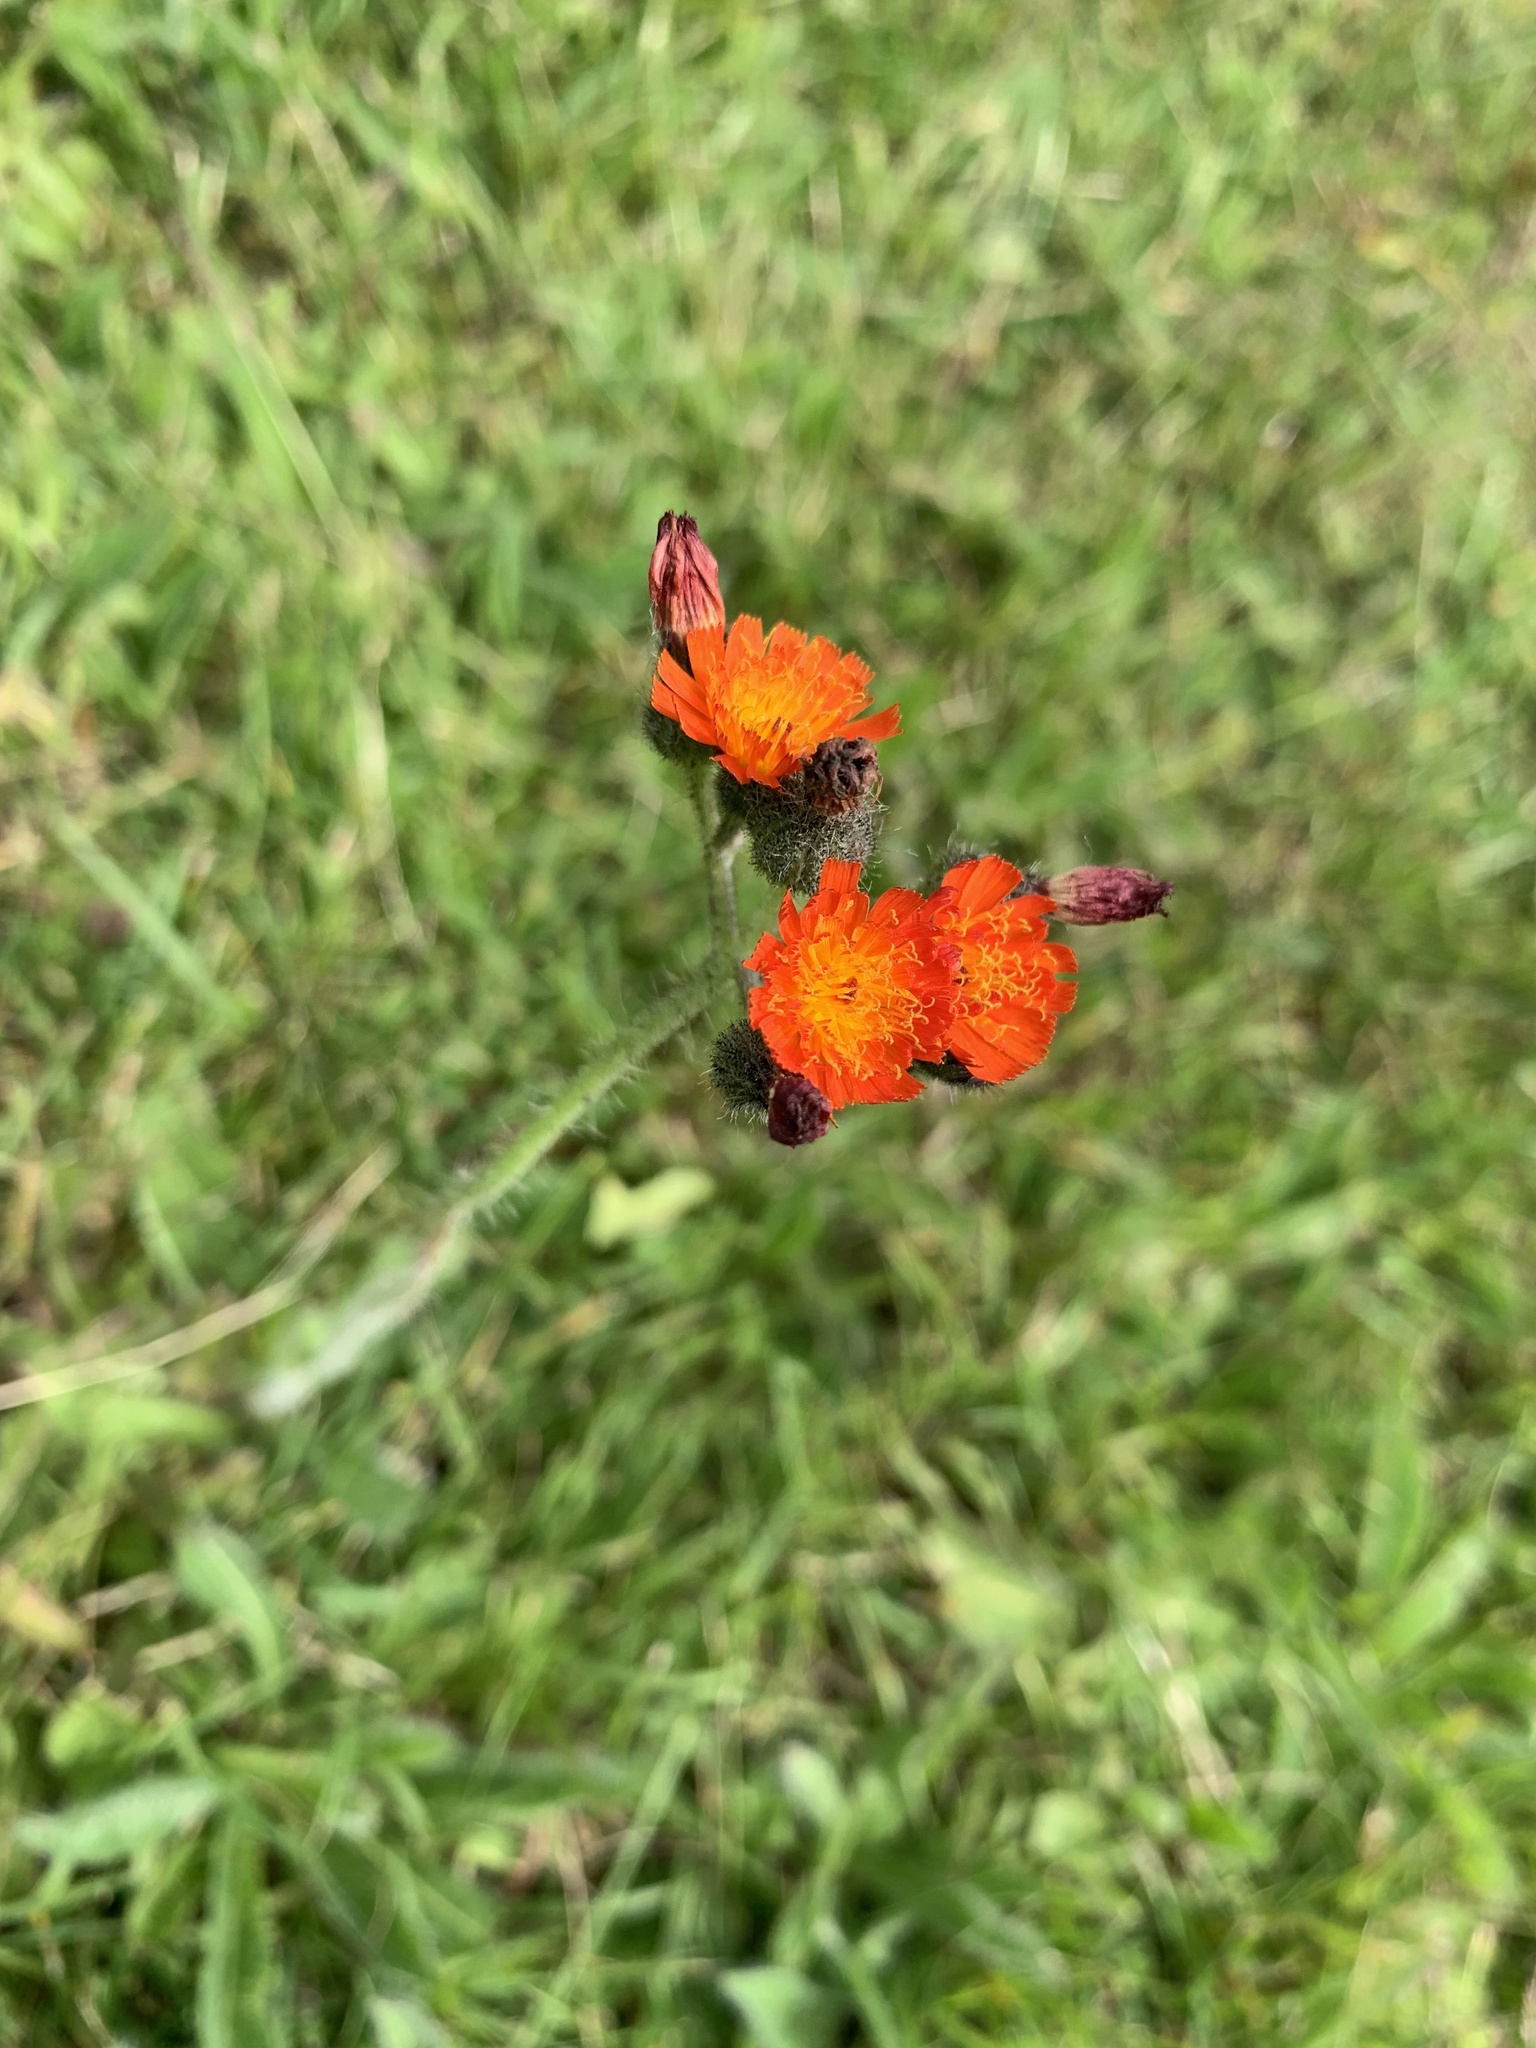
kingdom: Plantae
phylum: Tracheophyta
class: Magnoliopsida
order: Asterales
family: Asteraceae
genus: Pilosella
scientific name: Pilosella aurantiaca
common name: Fox-and-cubs
